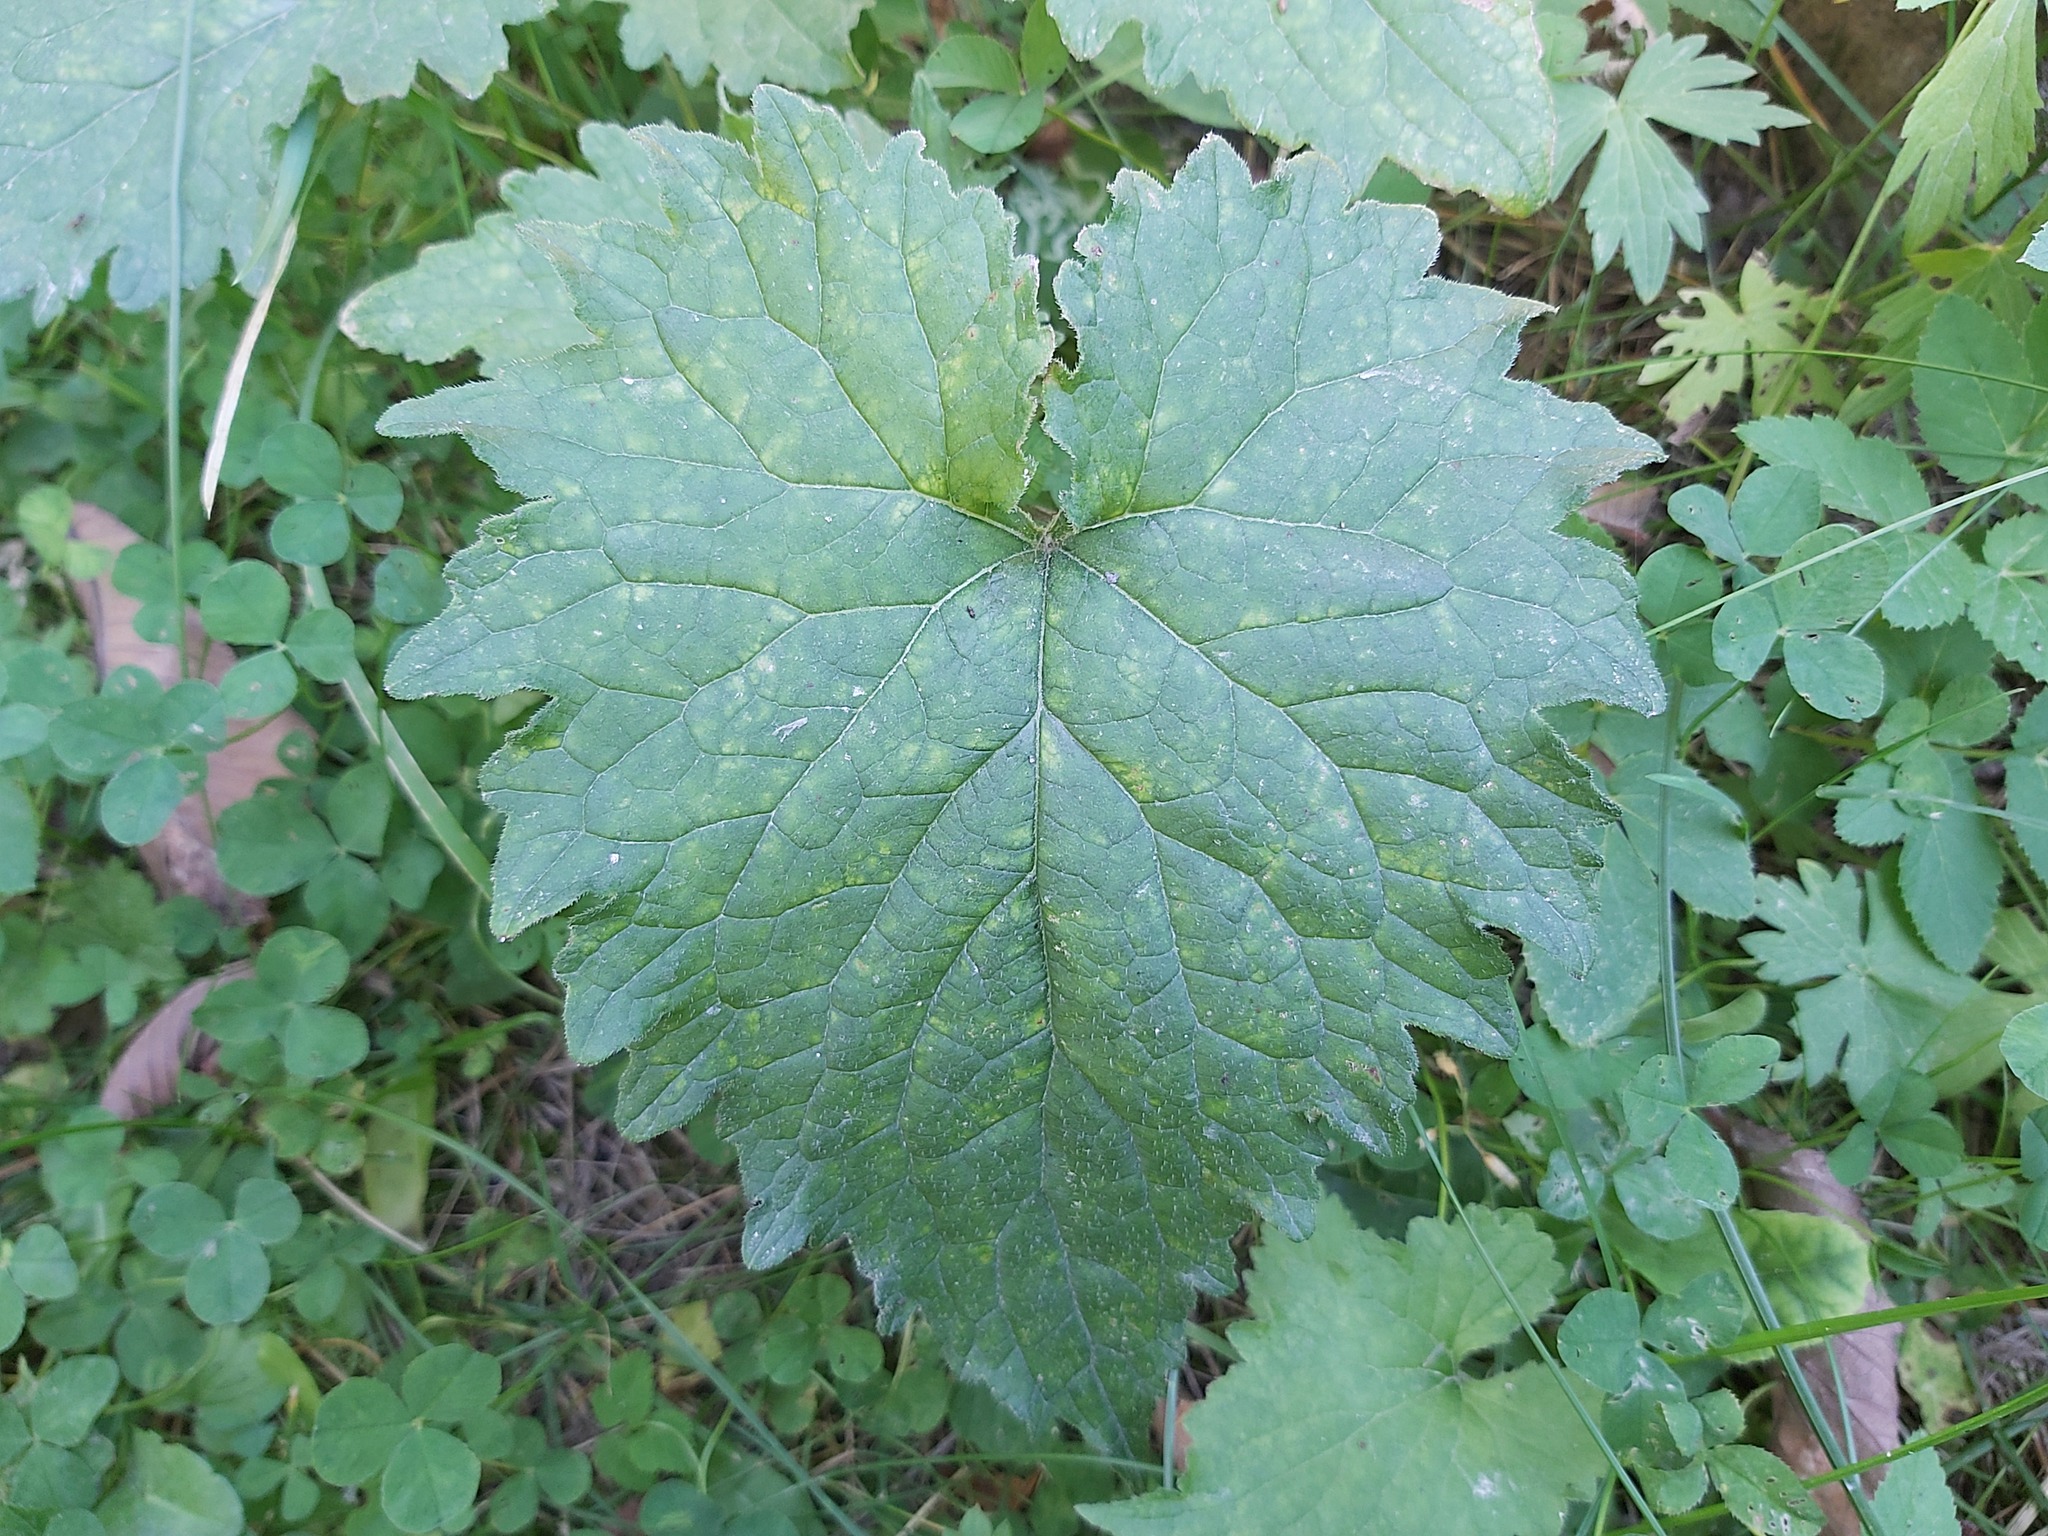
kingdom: Plantae
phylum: Tracheophyta
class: Magnoliopsida
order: Asterales
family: Campanulaceae
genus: Campanula
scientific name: Campanula trachelium
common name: Nettle-leaved bellflower
